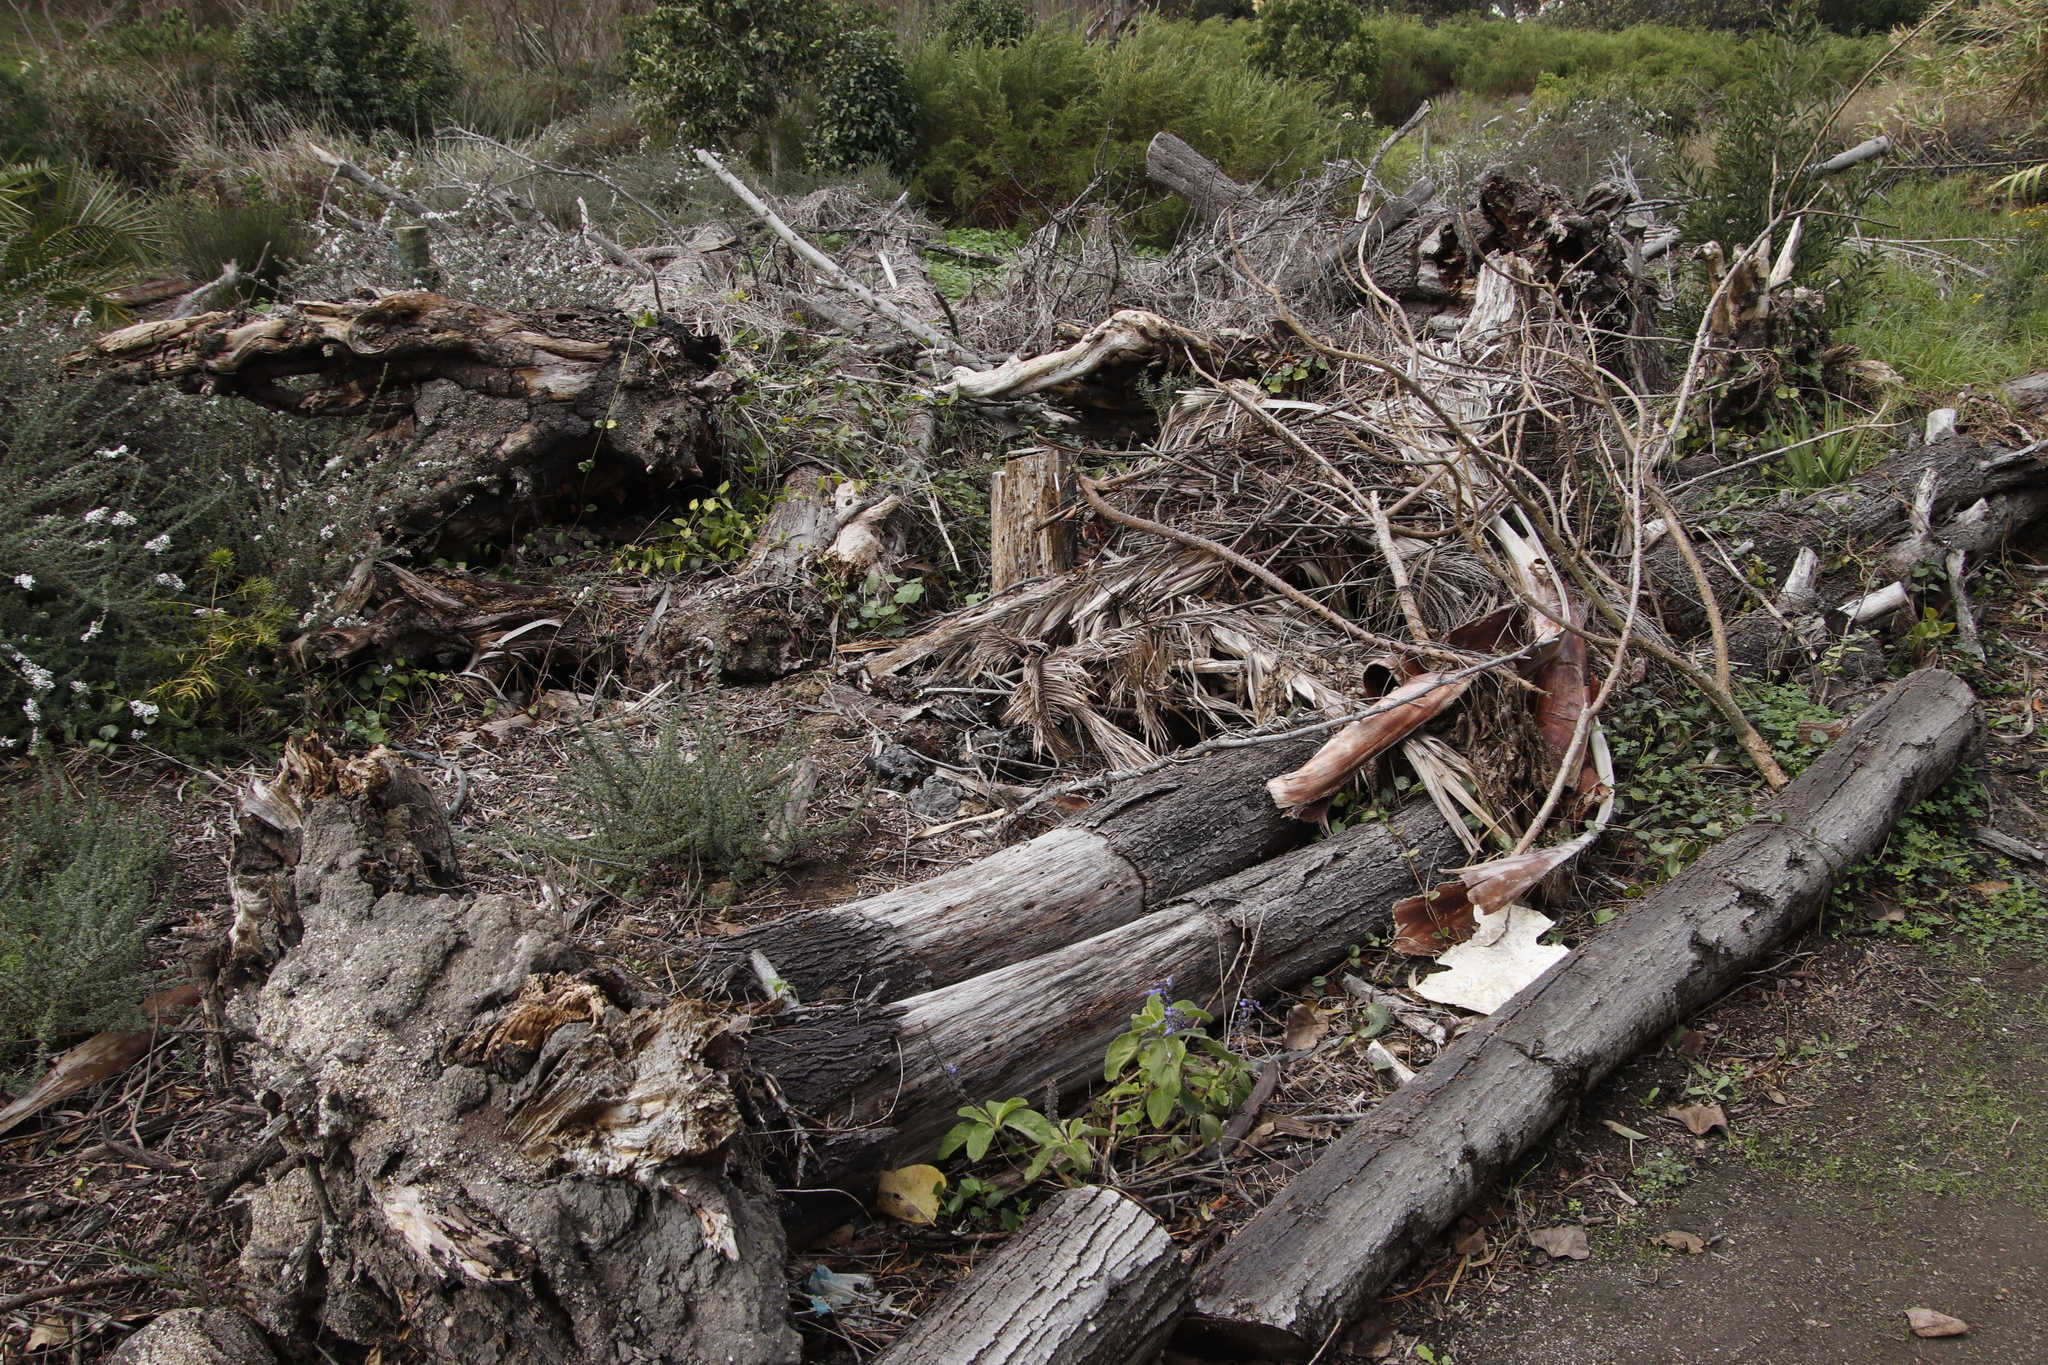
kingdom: Plantae
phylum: Tracheophyta
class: Magnoliopsida
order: Fabales
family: Fabaceae
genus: Acacia
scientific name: Acacia melanoxylon
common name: Blackwood
